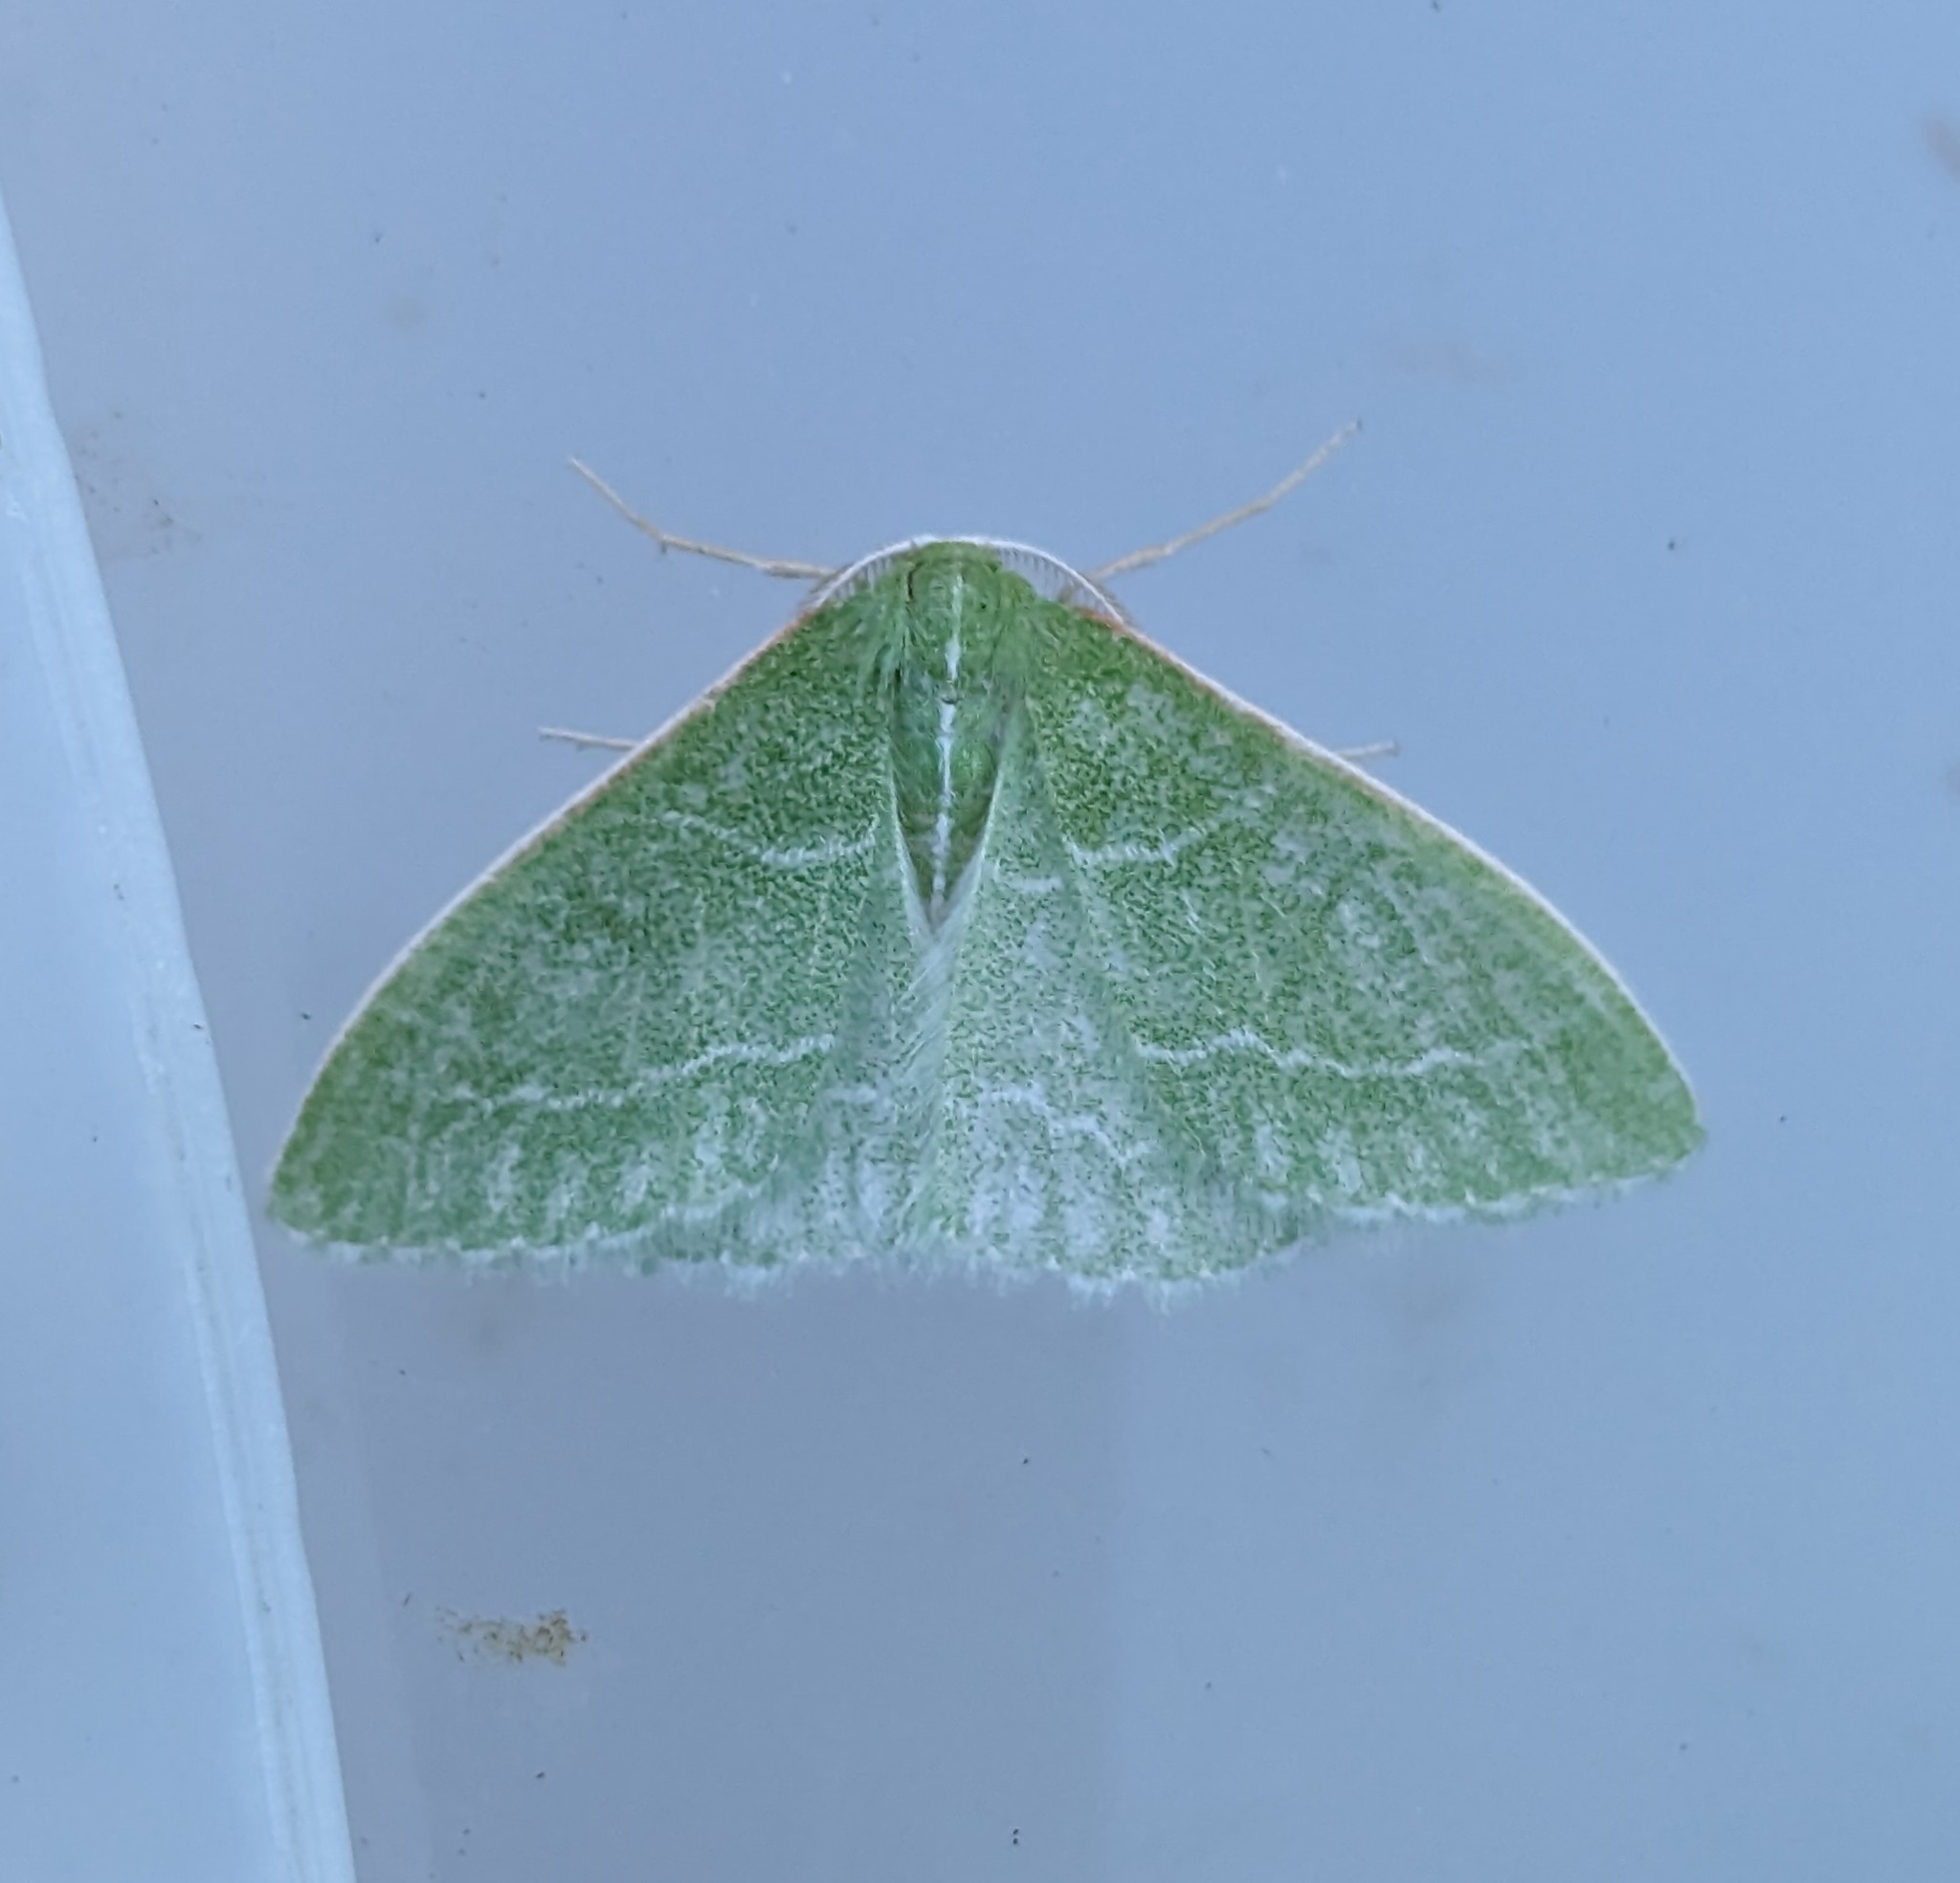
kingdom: Animalia
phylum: Arthropoda
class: Insecta
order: Lepidoptera
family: Geometridae
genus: Synchlora
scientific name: Synchlora aerata
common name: Wavy-lined emerald
